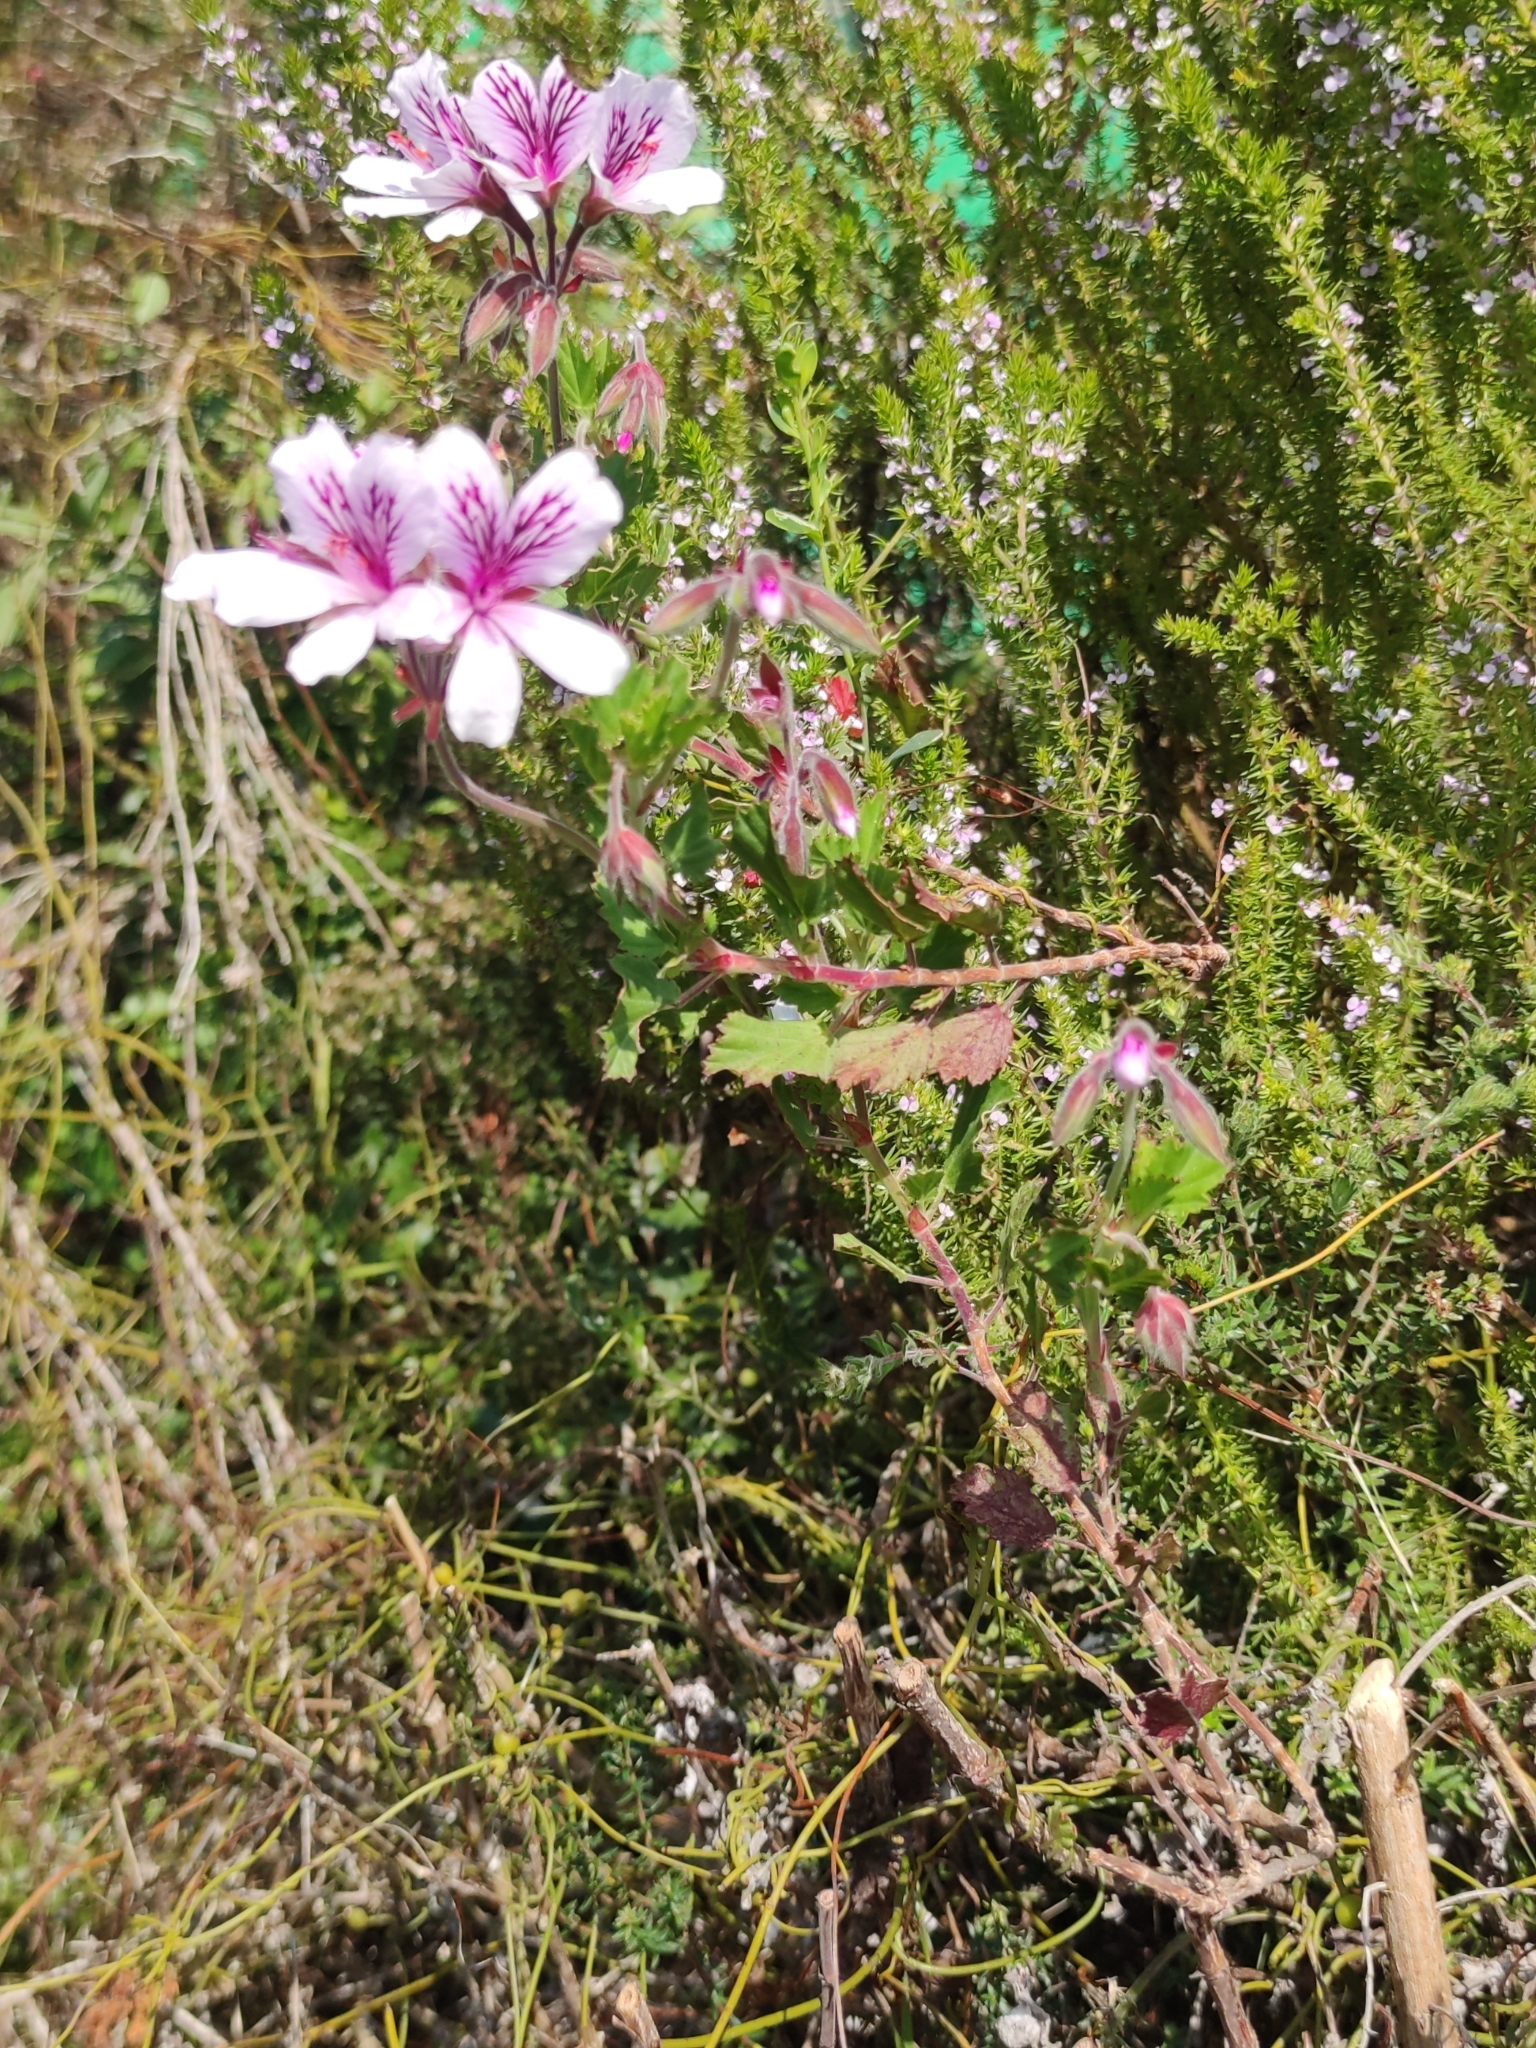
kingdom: Plantae
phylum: Tracheophyta
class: Magnoliopsida
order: Geraniales
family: Geraniaceae
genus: Pelargonium
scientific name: Pelargonium betulinum
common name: Birch-leaf pelargonium
